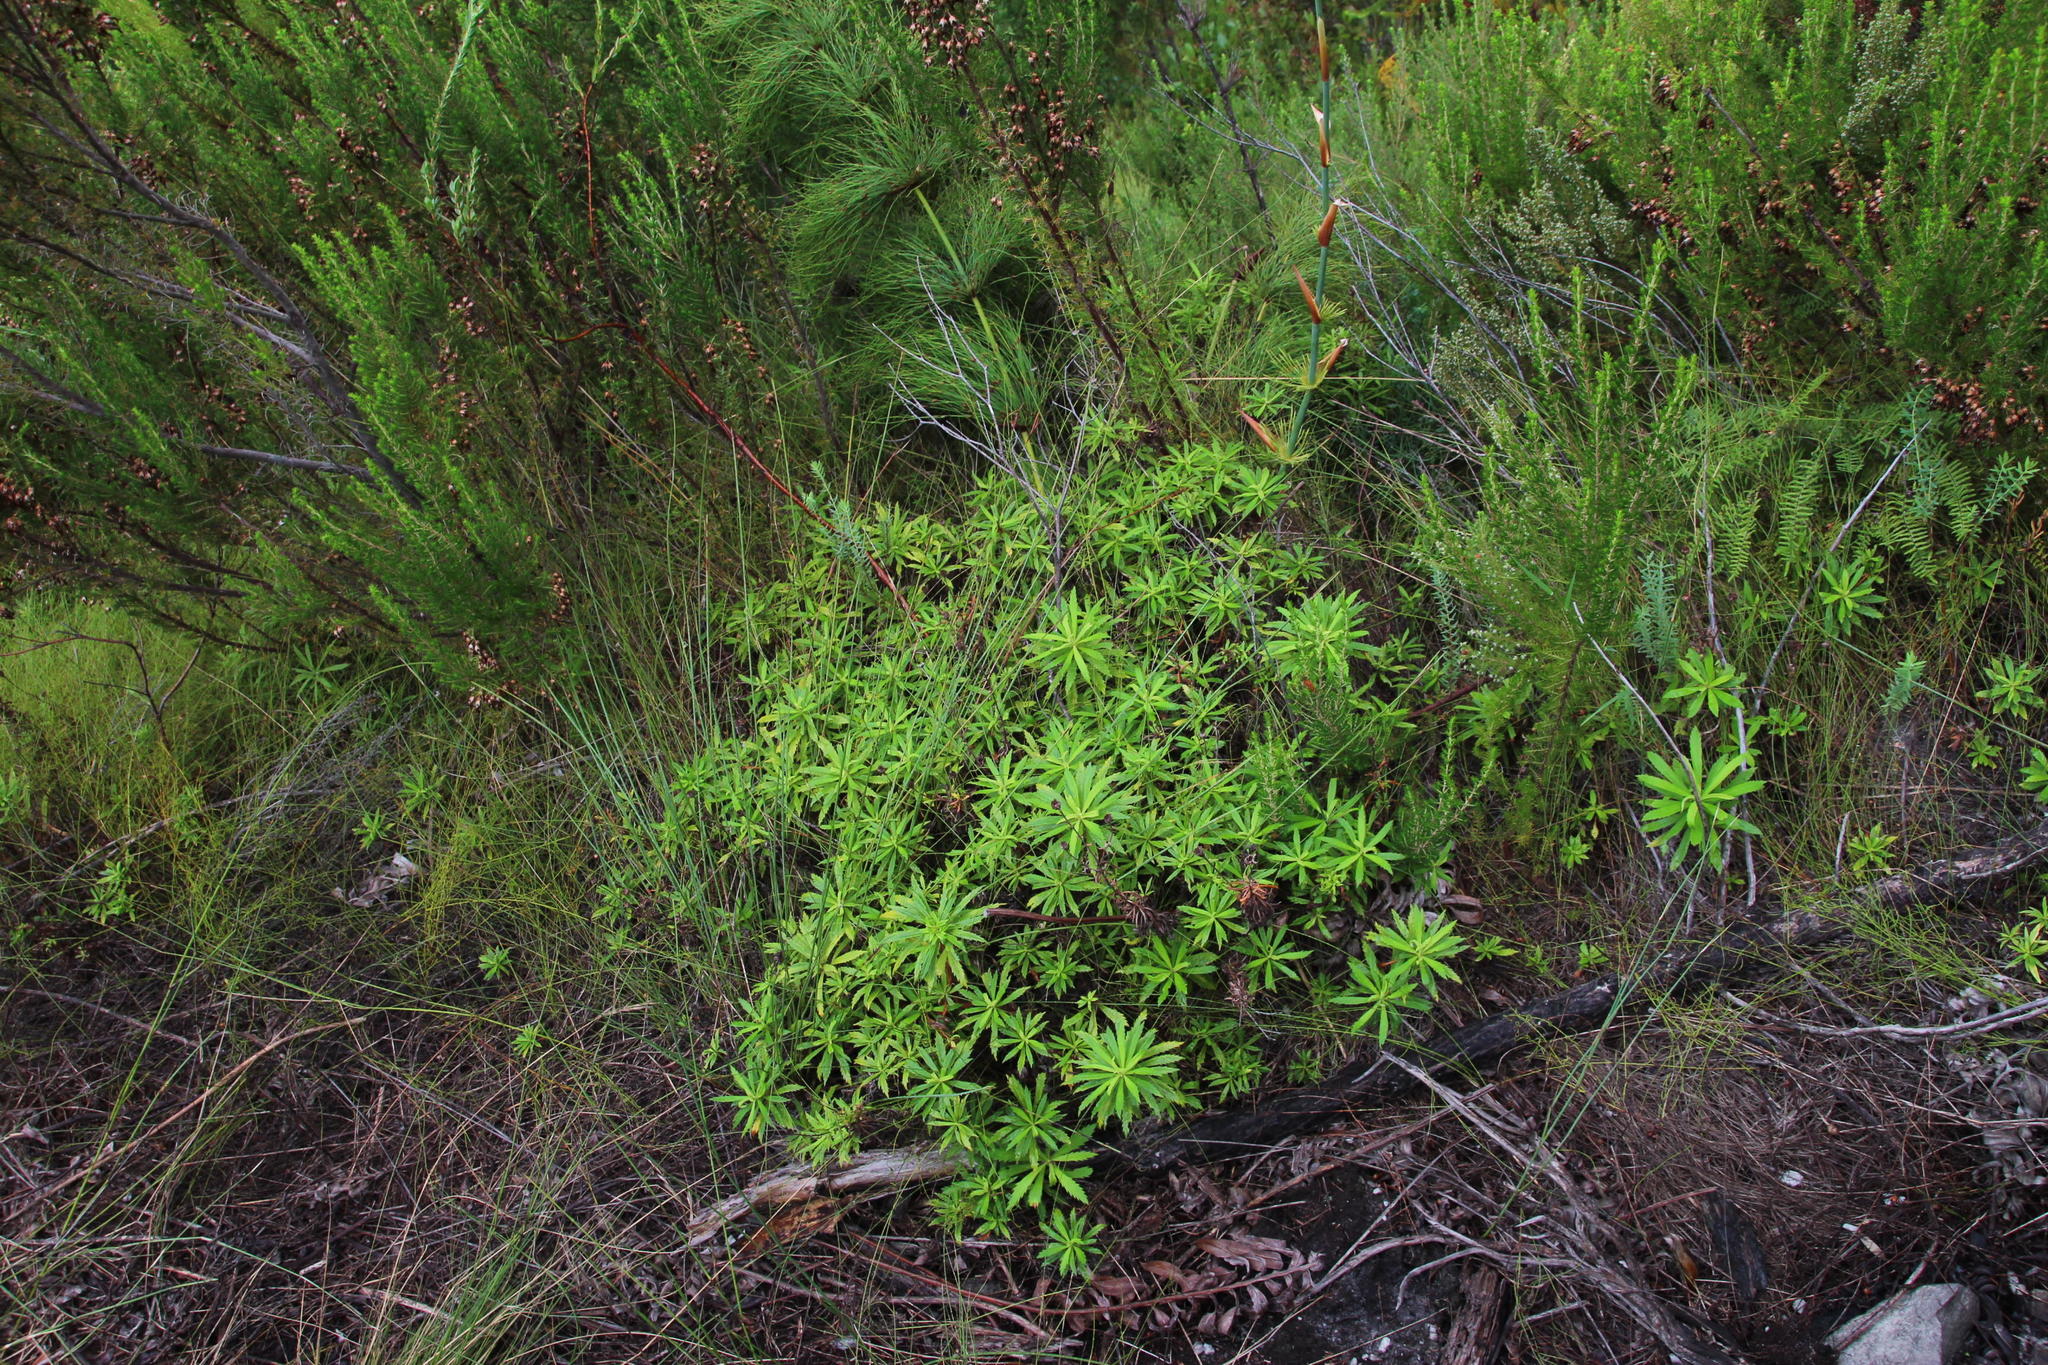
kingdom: Plantae
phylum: Tracheophyta
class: Magnoliopsida
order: Asterales
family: Asteraceae
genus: Osmitopsis
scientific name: Osmitopsis osmitoides
